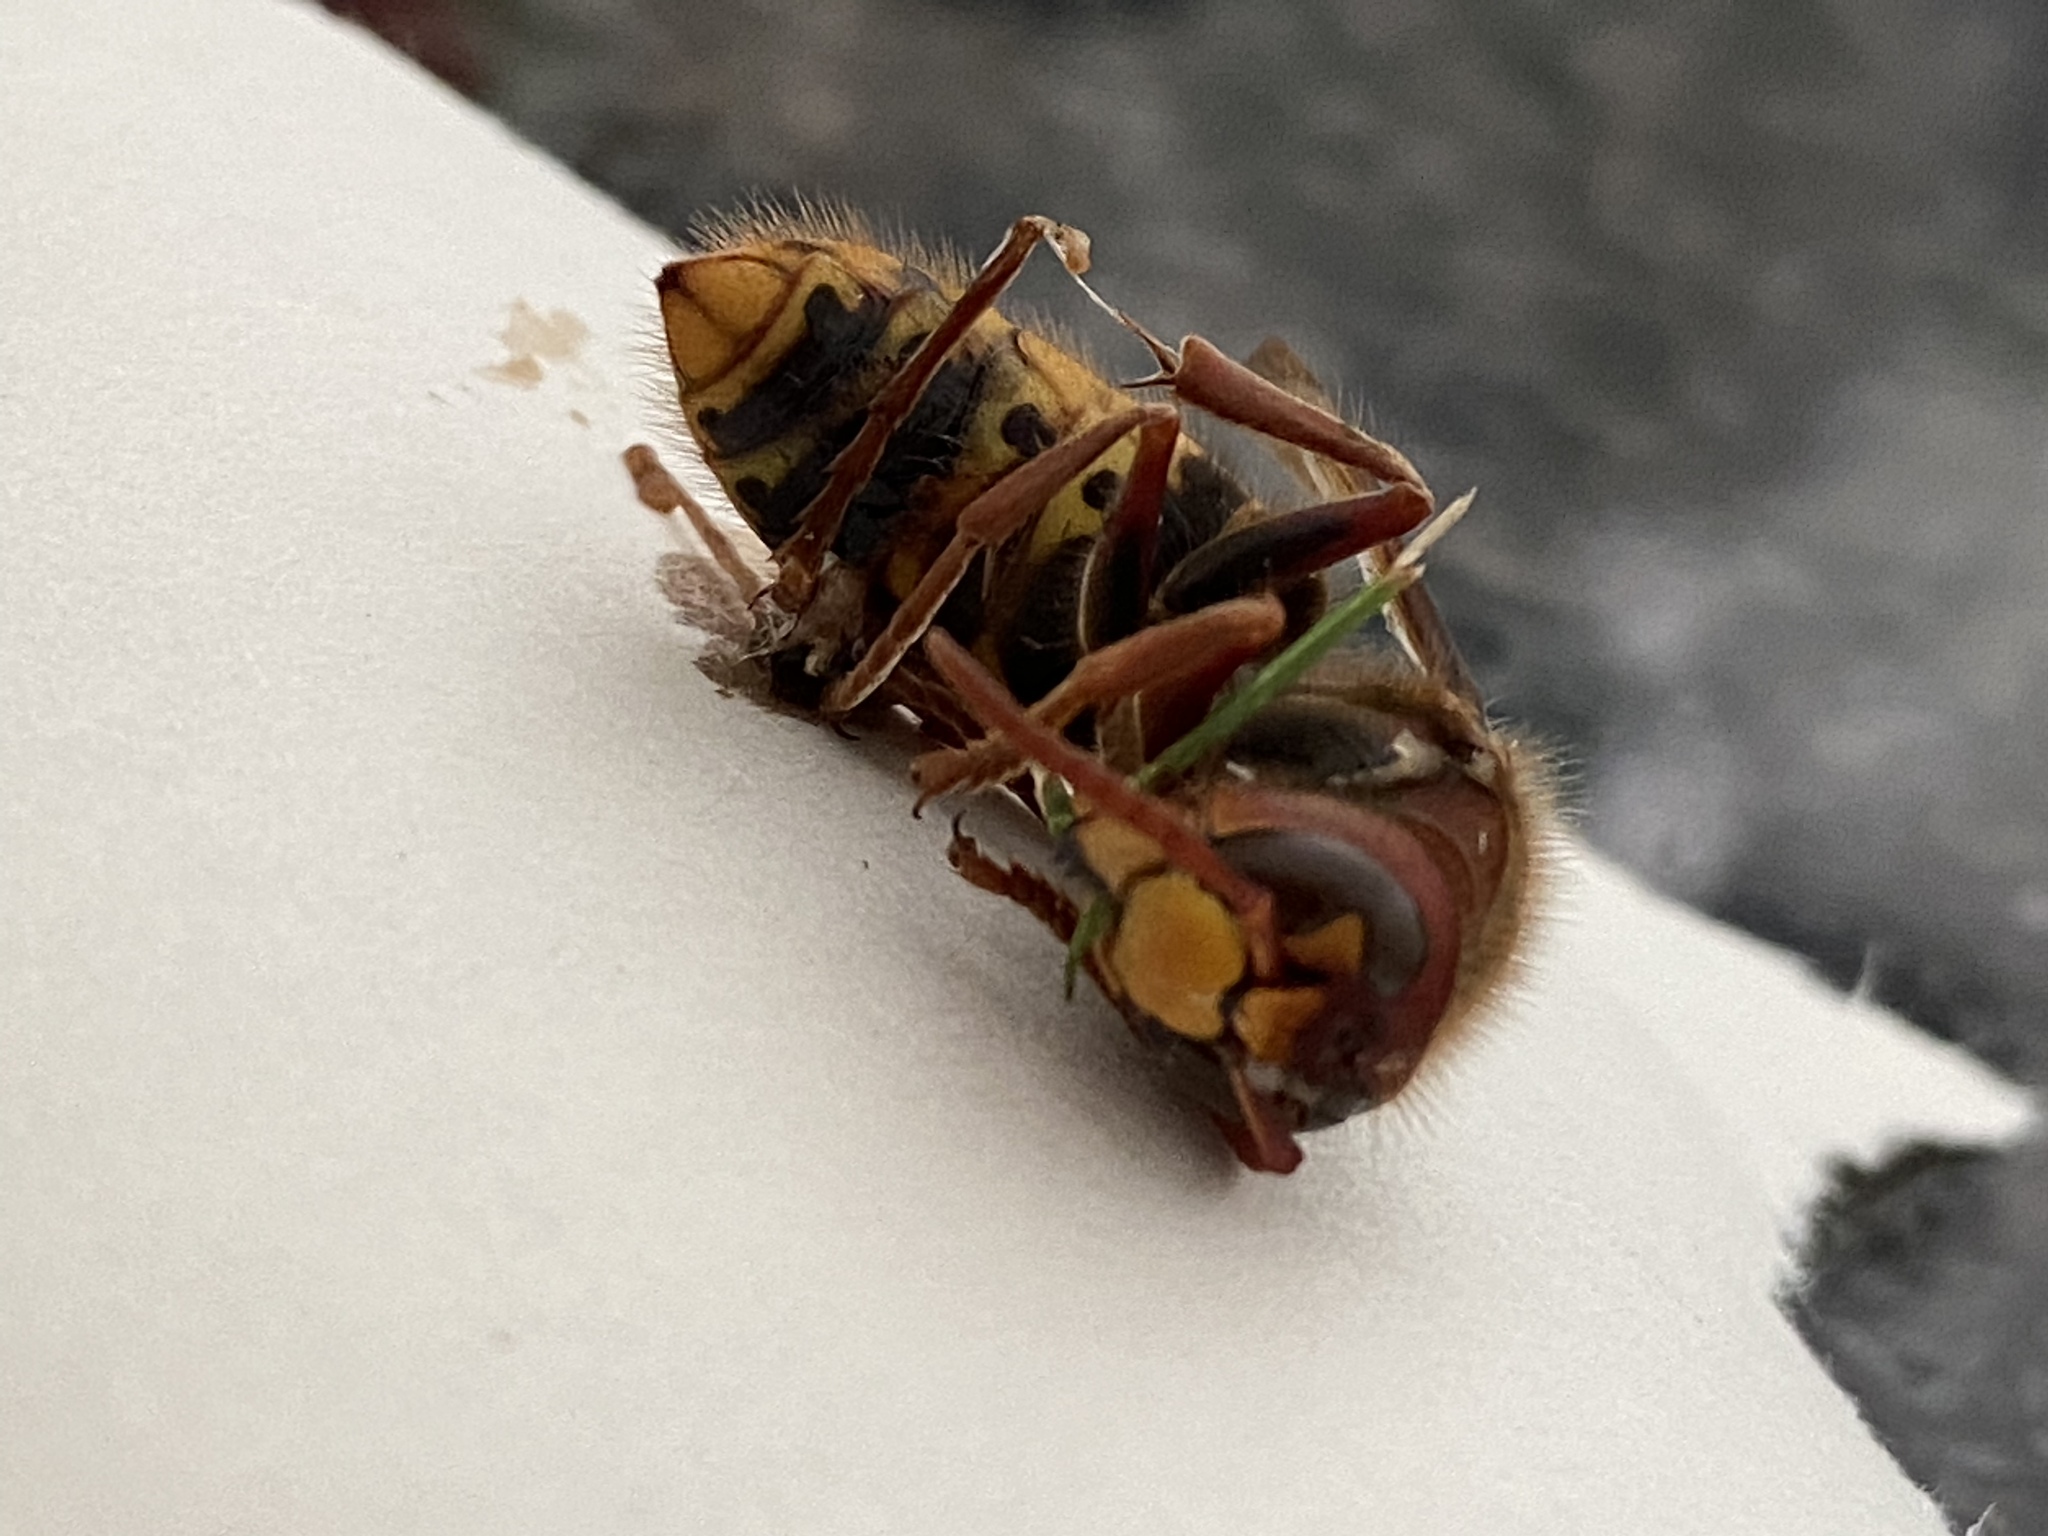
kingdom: Animalia
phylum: Arthropoda
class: Insecta
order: Hymenoptera
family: Vespidae
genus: Vespa
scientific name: Vespa crabro
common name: Hornet
